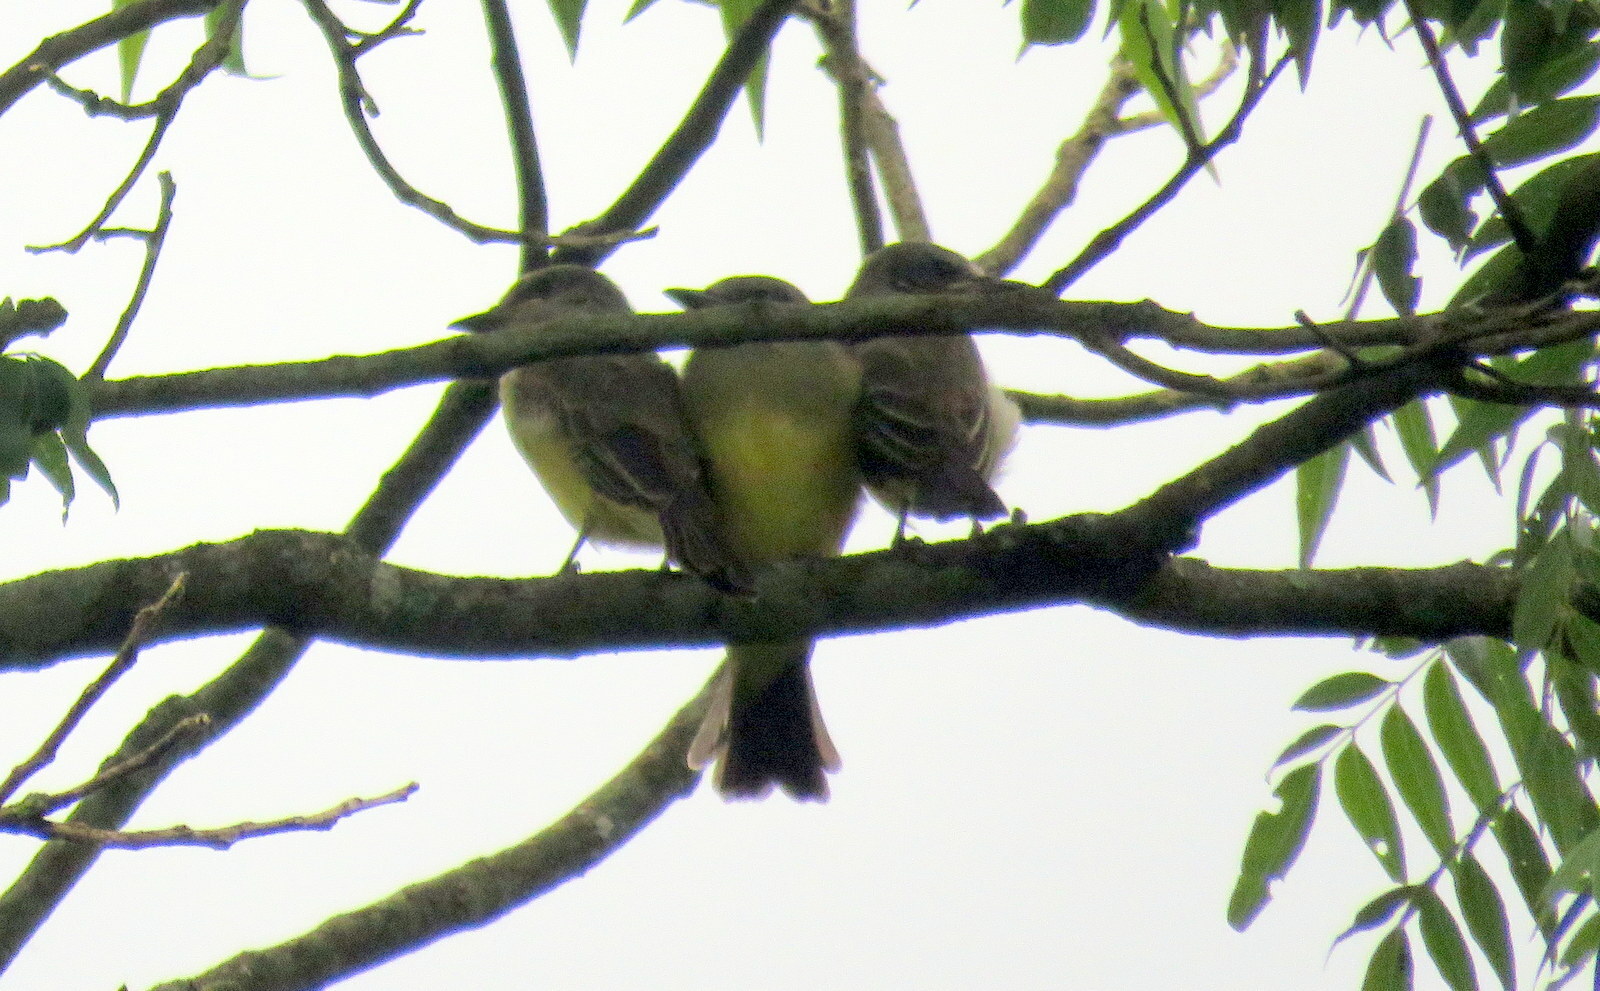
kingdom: Animalia
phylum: Chordata
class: Aves
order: Passeriformes
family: Tyrannidae
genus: Tyrannus
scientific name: Tyrannus melancholicus
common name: Tropical kingbird
